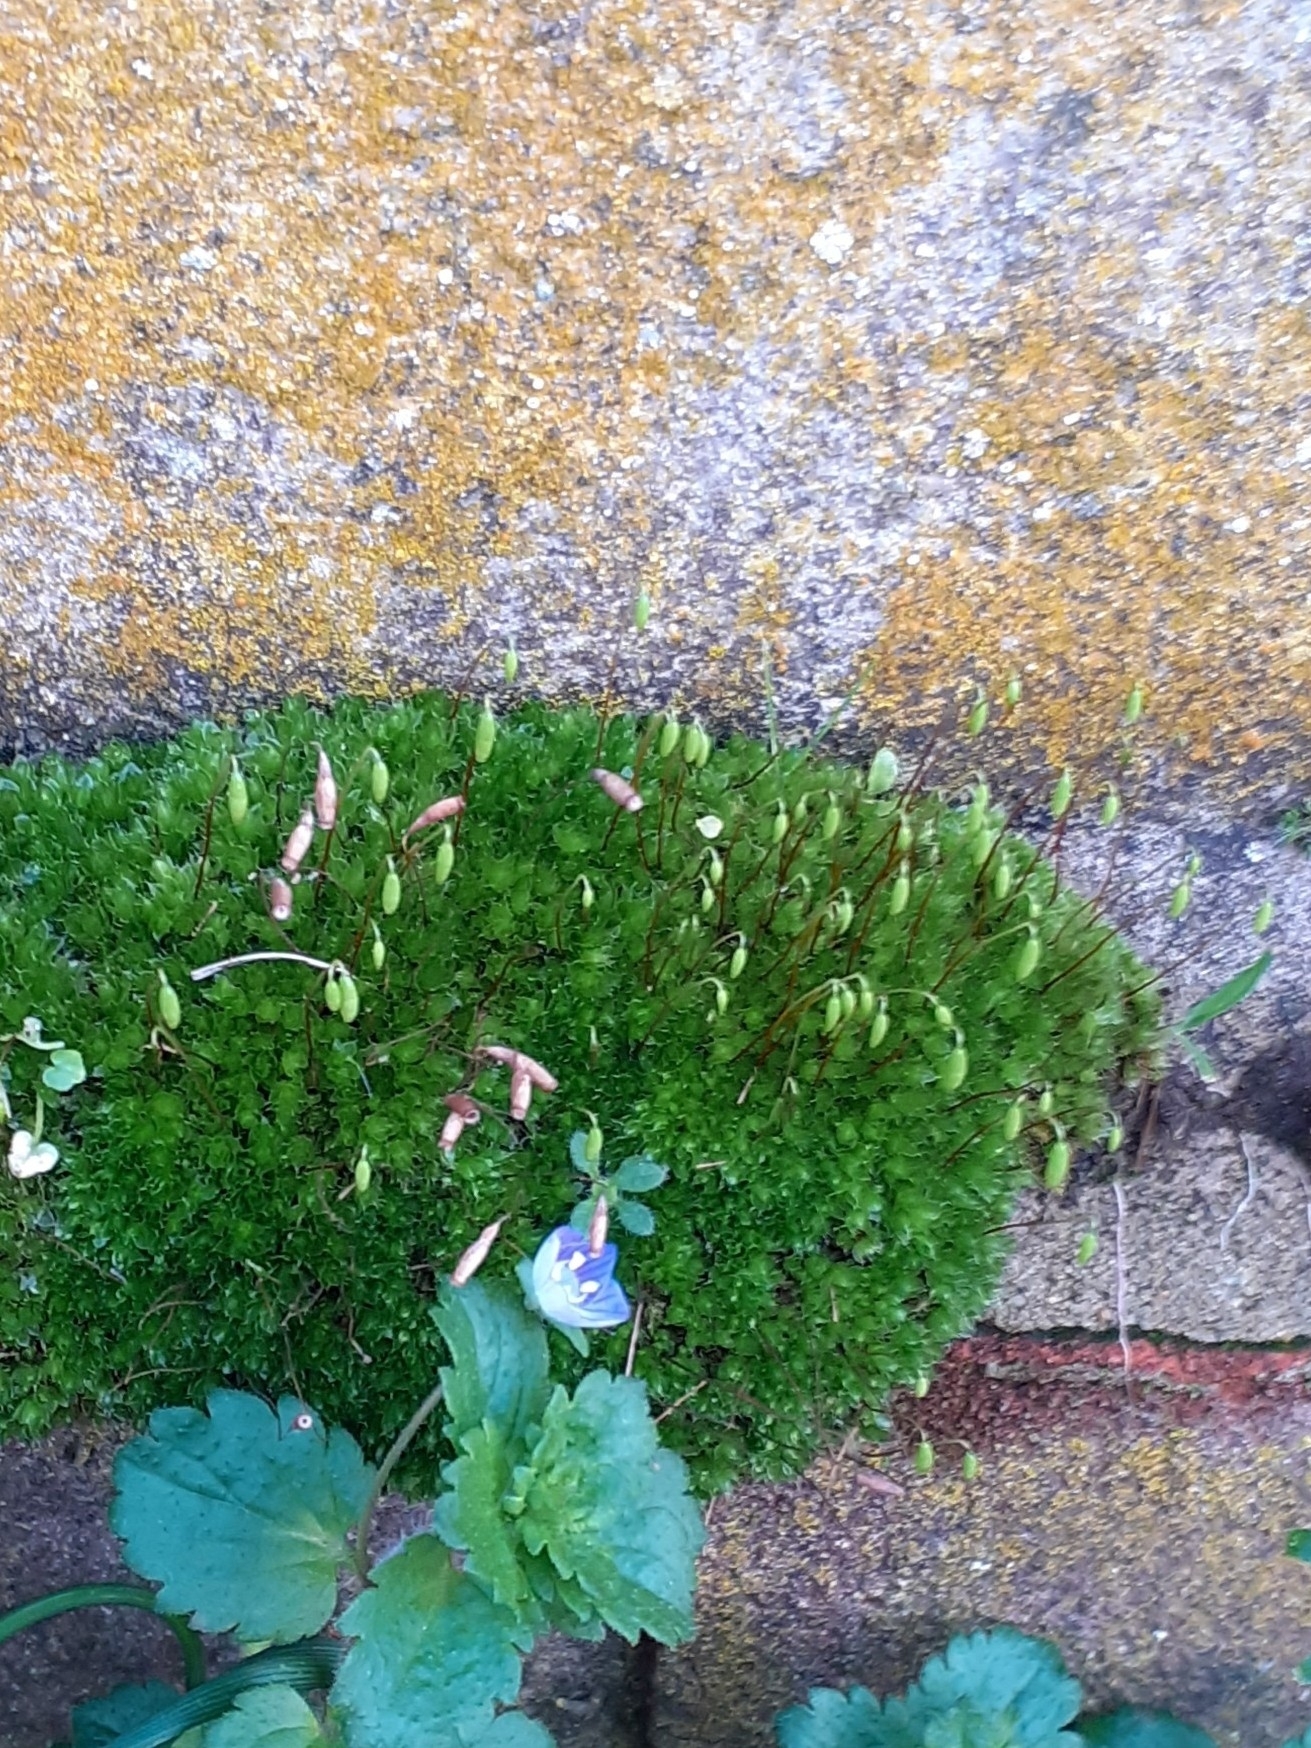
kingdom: Plantae
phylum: Bryophyta
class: Bryopsida
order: Bryales
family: Bryaceae
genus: Rosulabryum
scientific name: Rosulabryum capillare
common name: Capillary thread-moss
